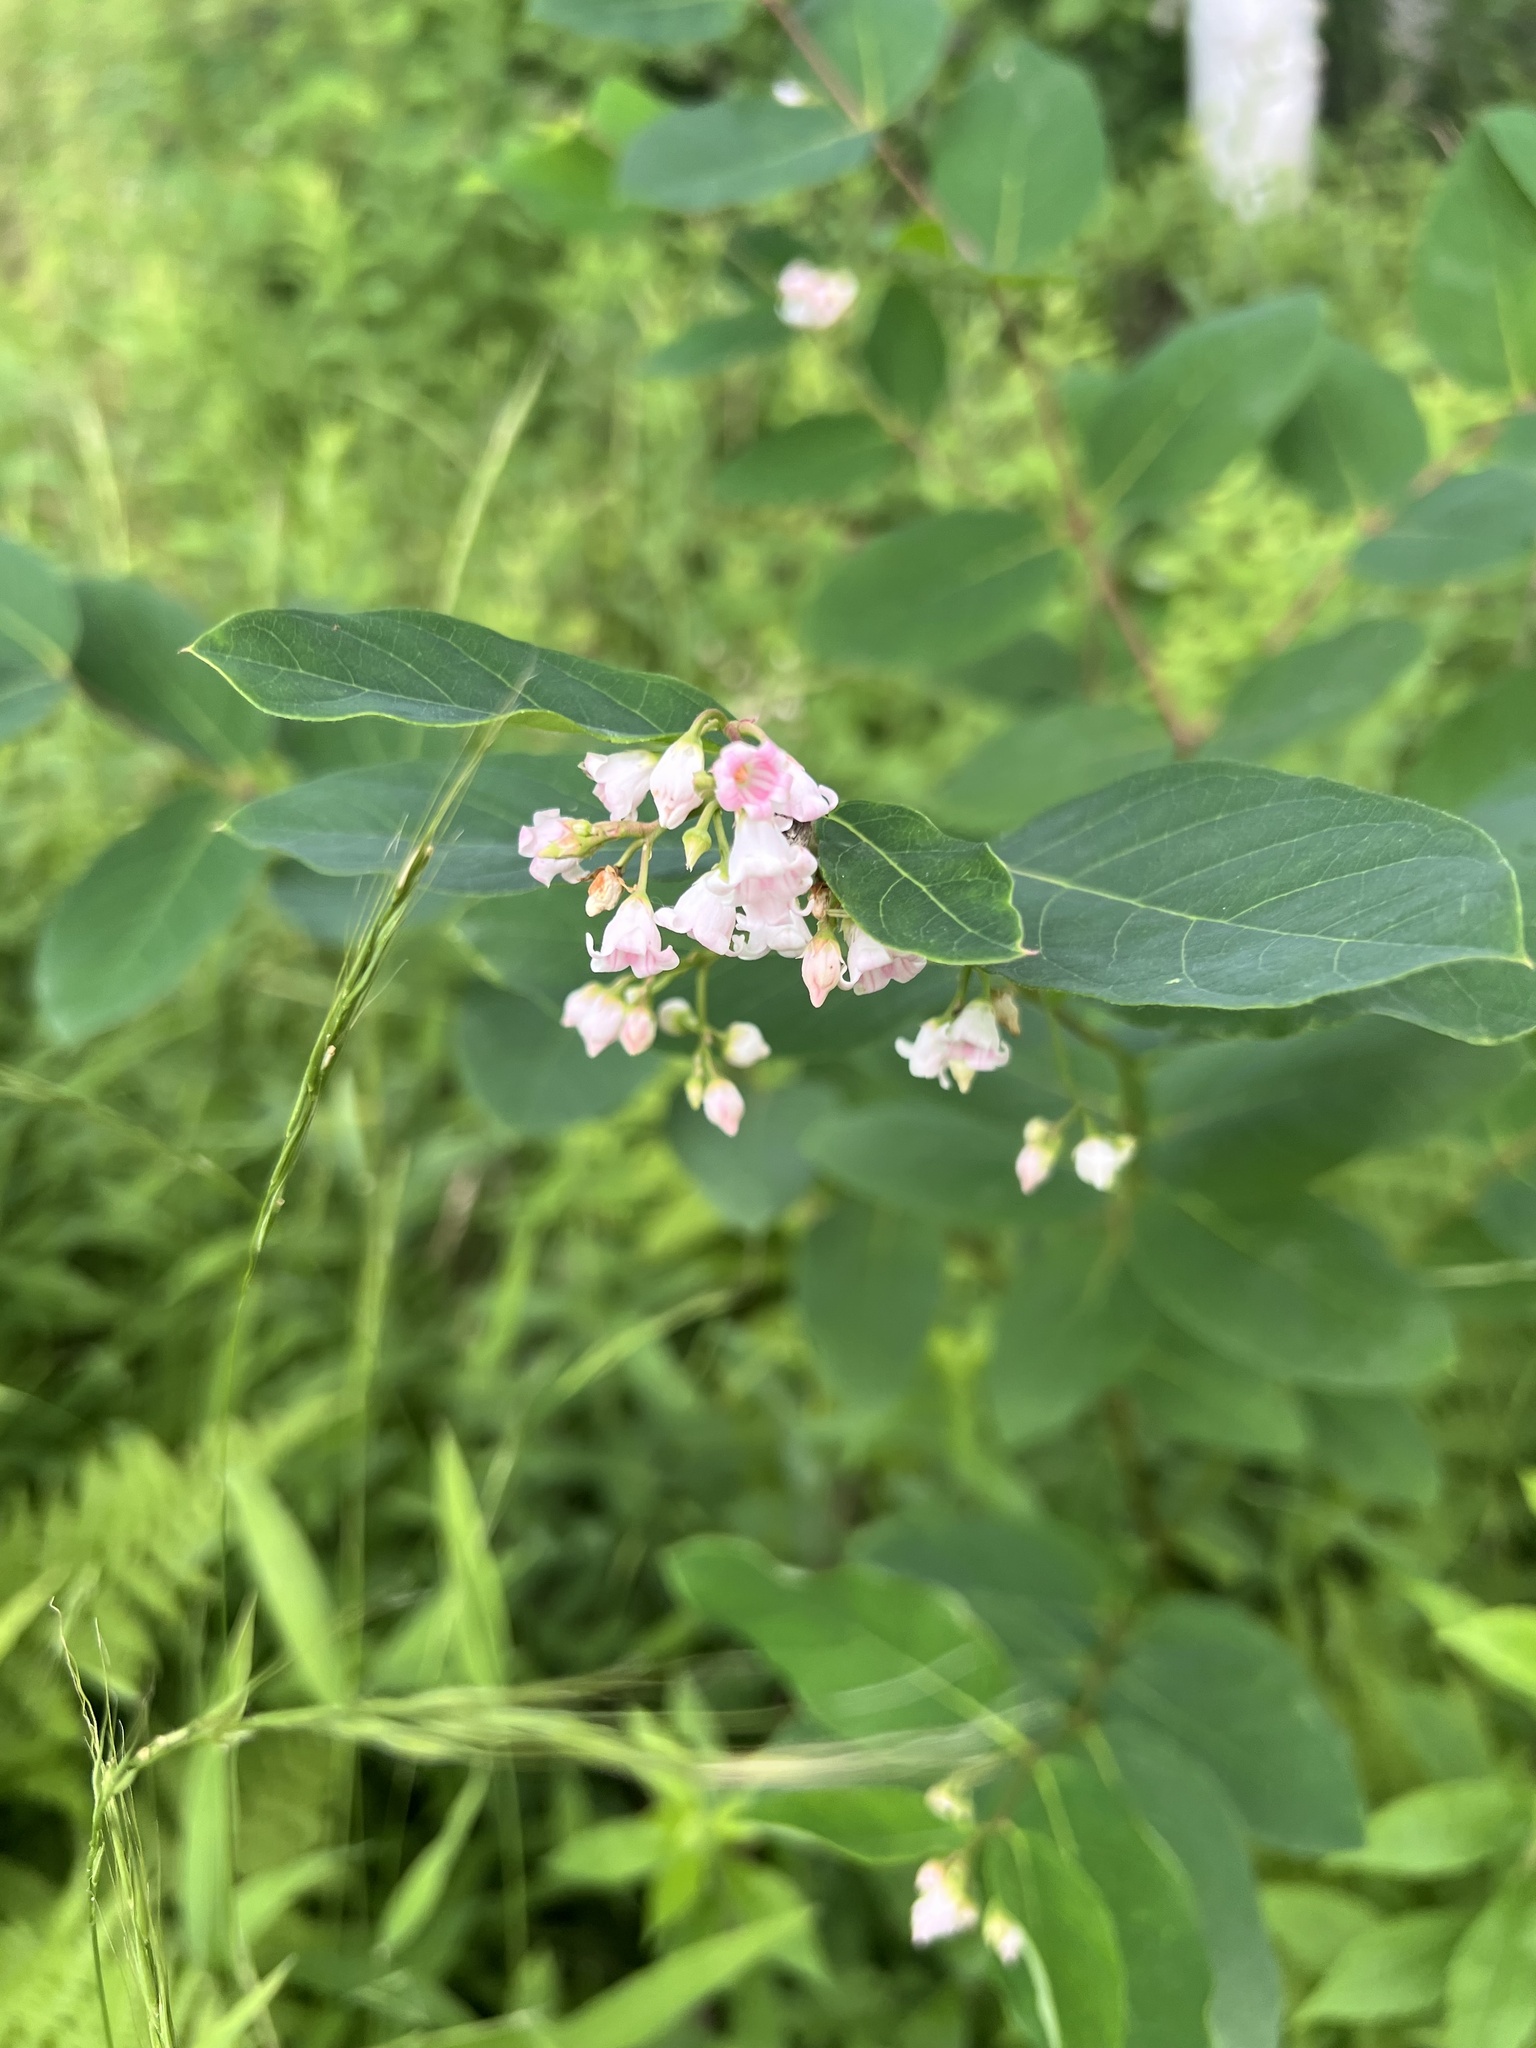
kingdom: Plantae
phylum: Tracheophyta
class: Magnoliopsida
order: Gentianales
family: Apocynaceae
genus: Apocynum
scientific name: Apocynum androsaemifolium
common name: Spreading dogbane
